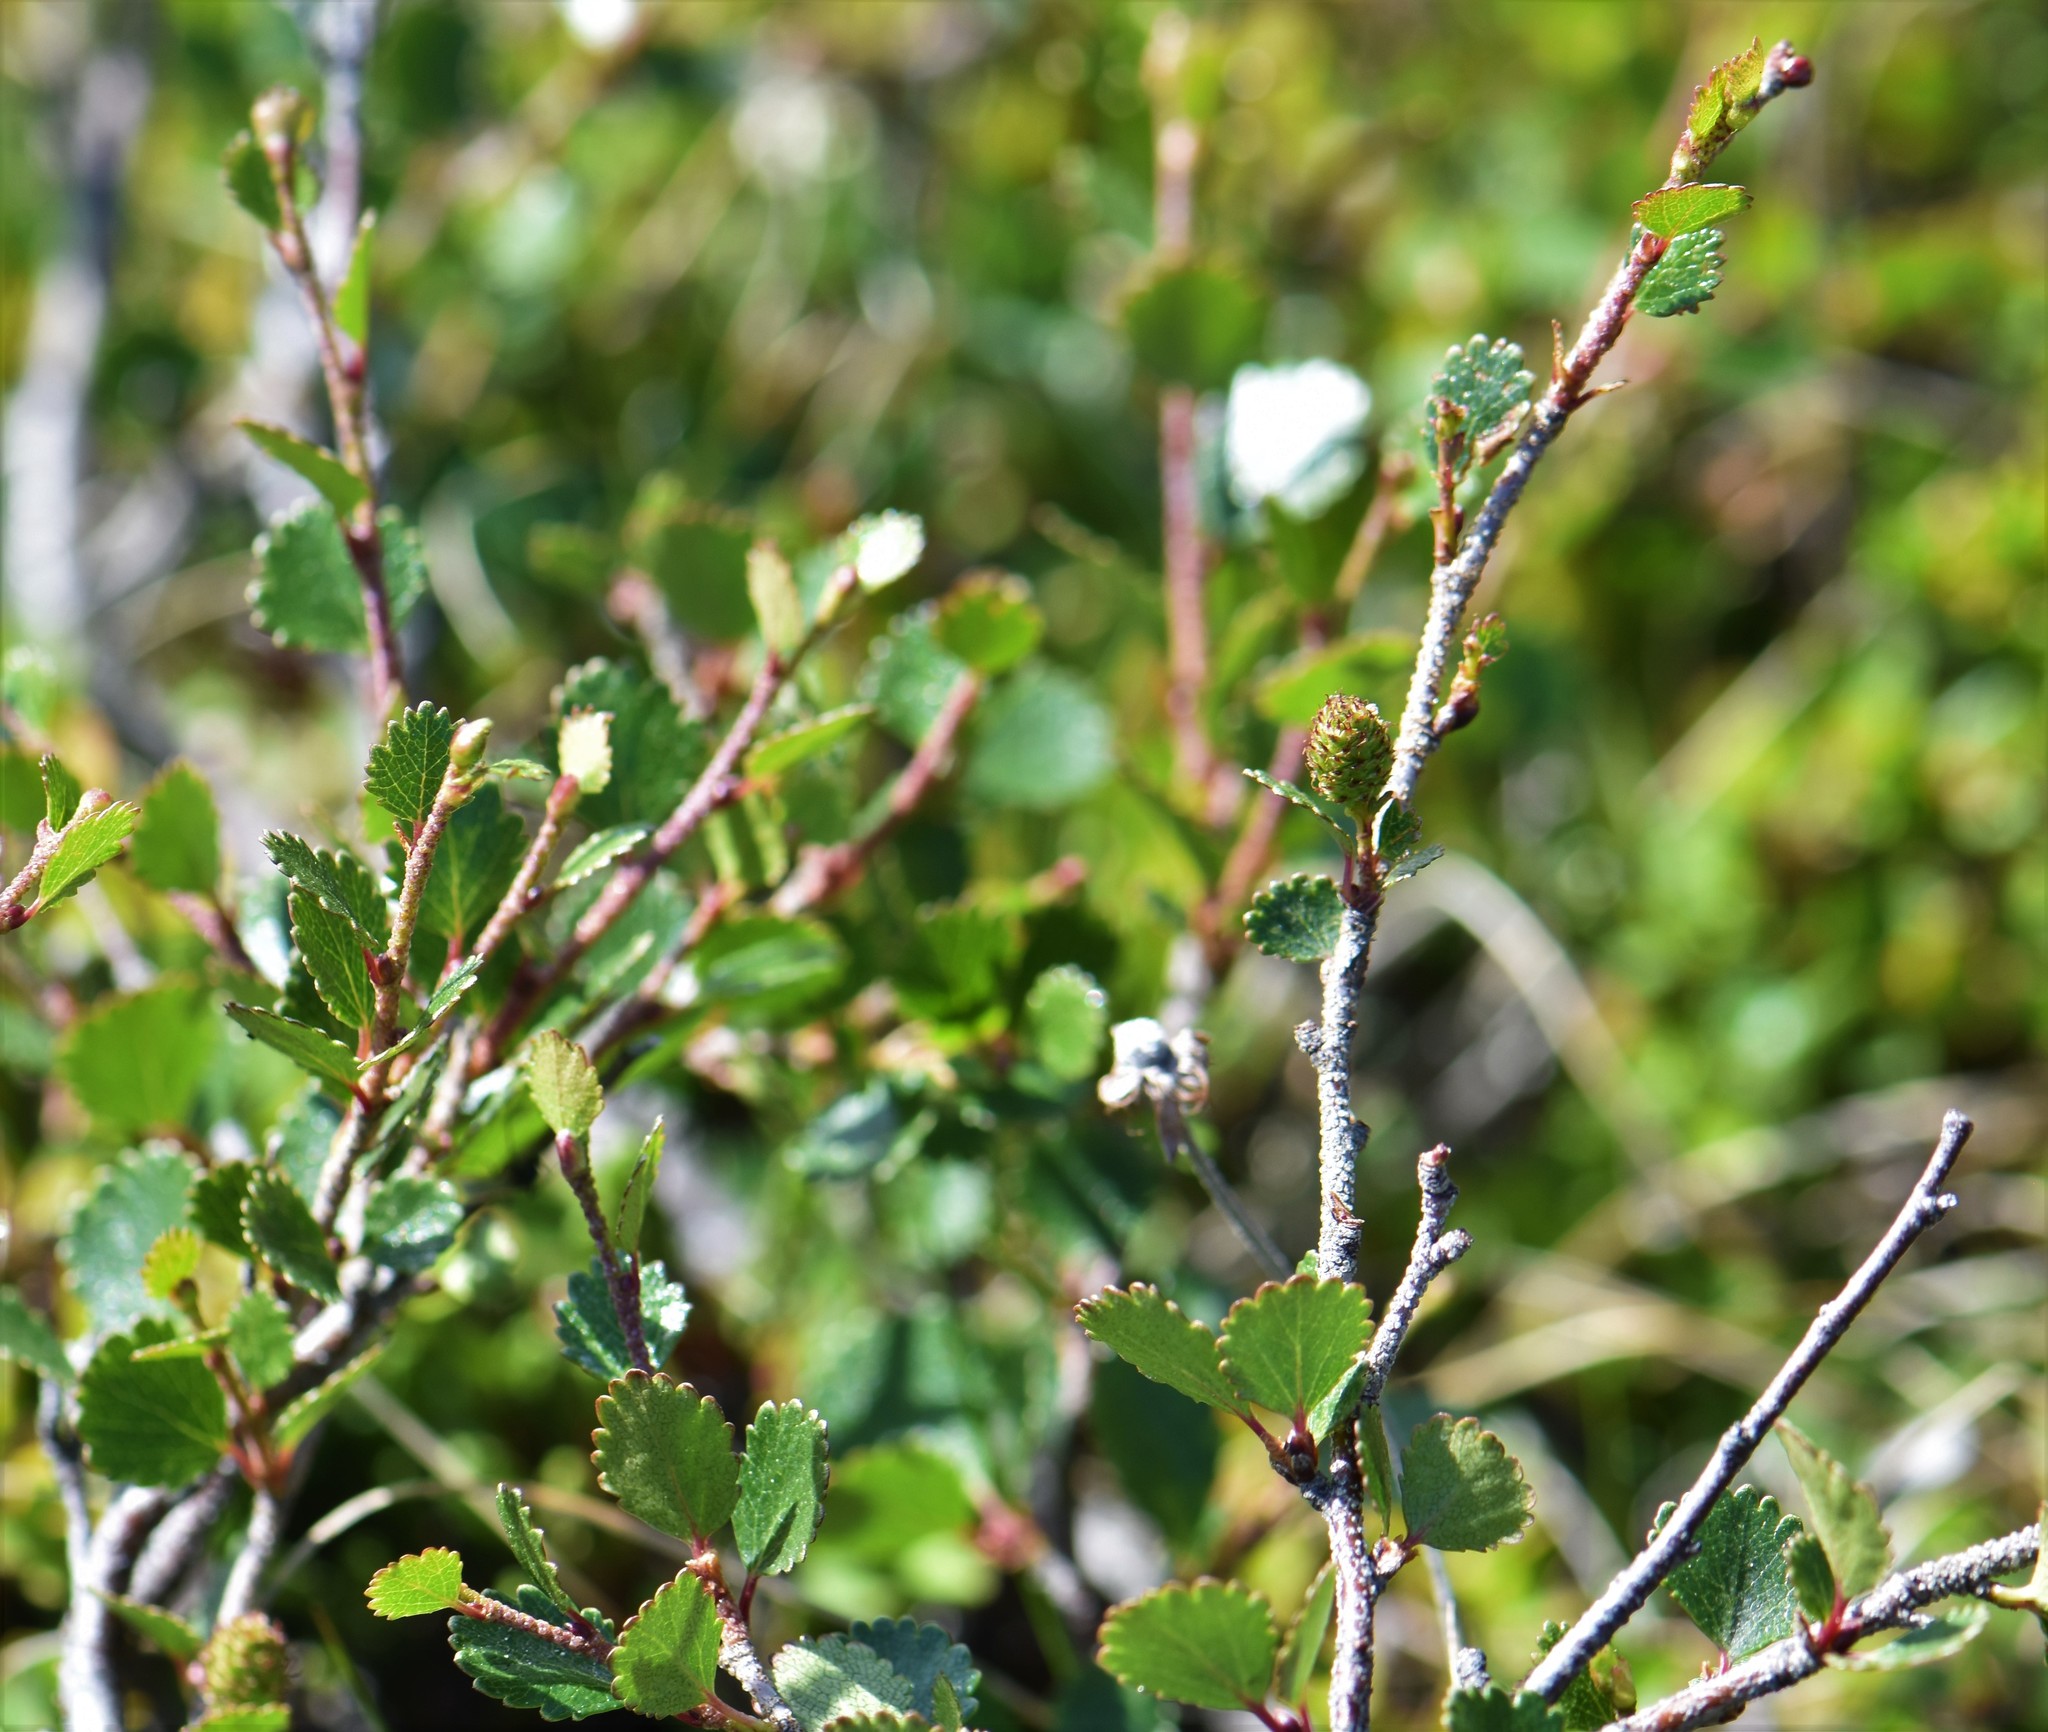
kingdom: Plantae
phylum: Tracheophyta
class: Magnoliopsida
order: Fagales
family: Betulaceae
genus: Betula
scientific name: Betula glandulosa
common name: Dwarf birch
